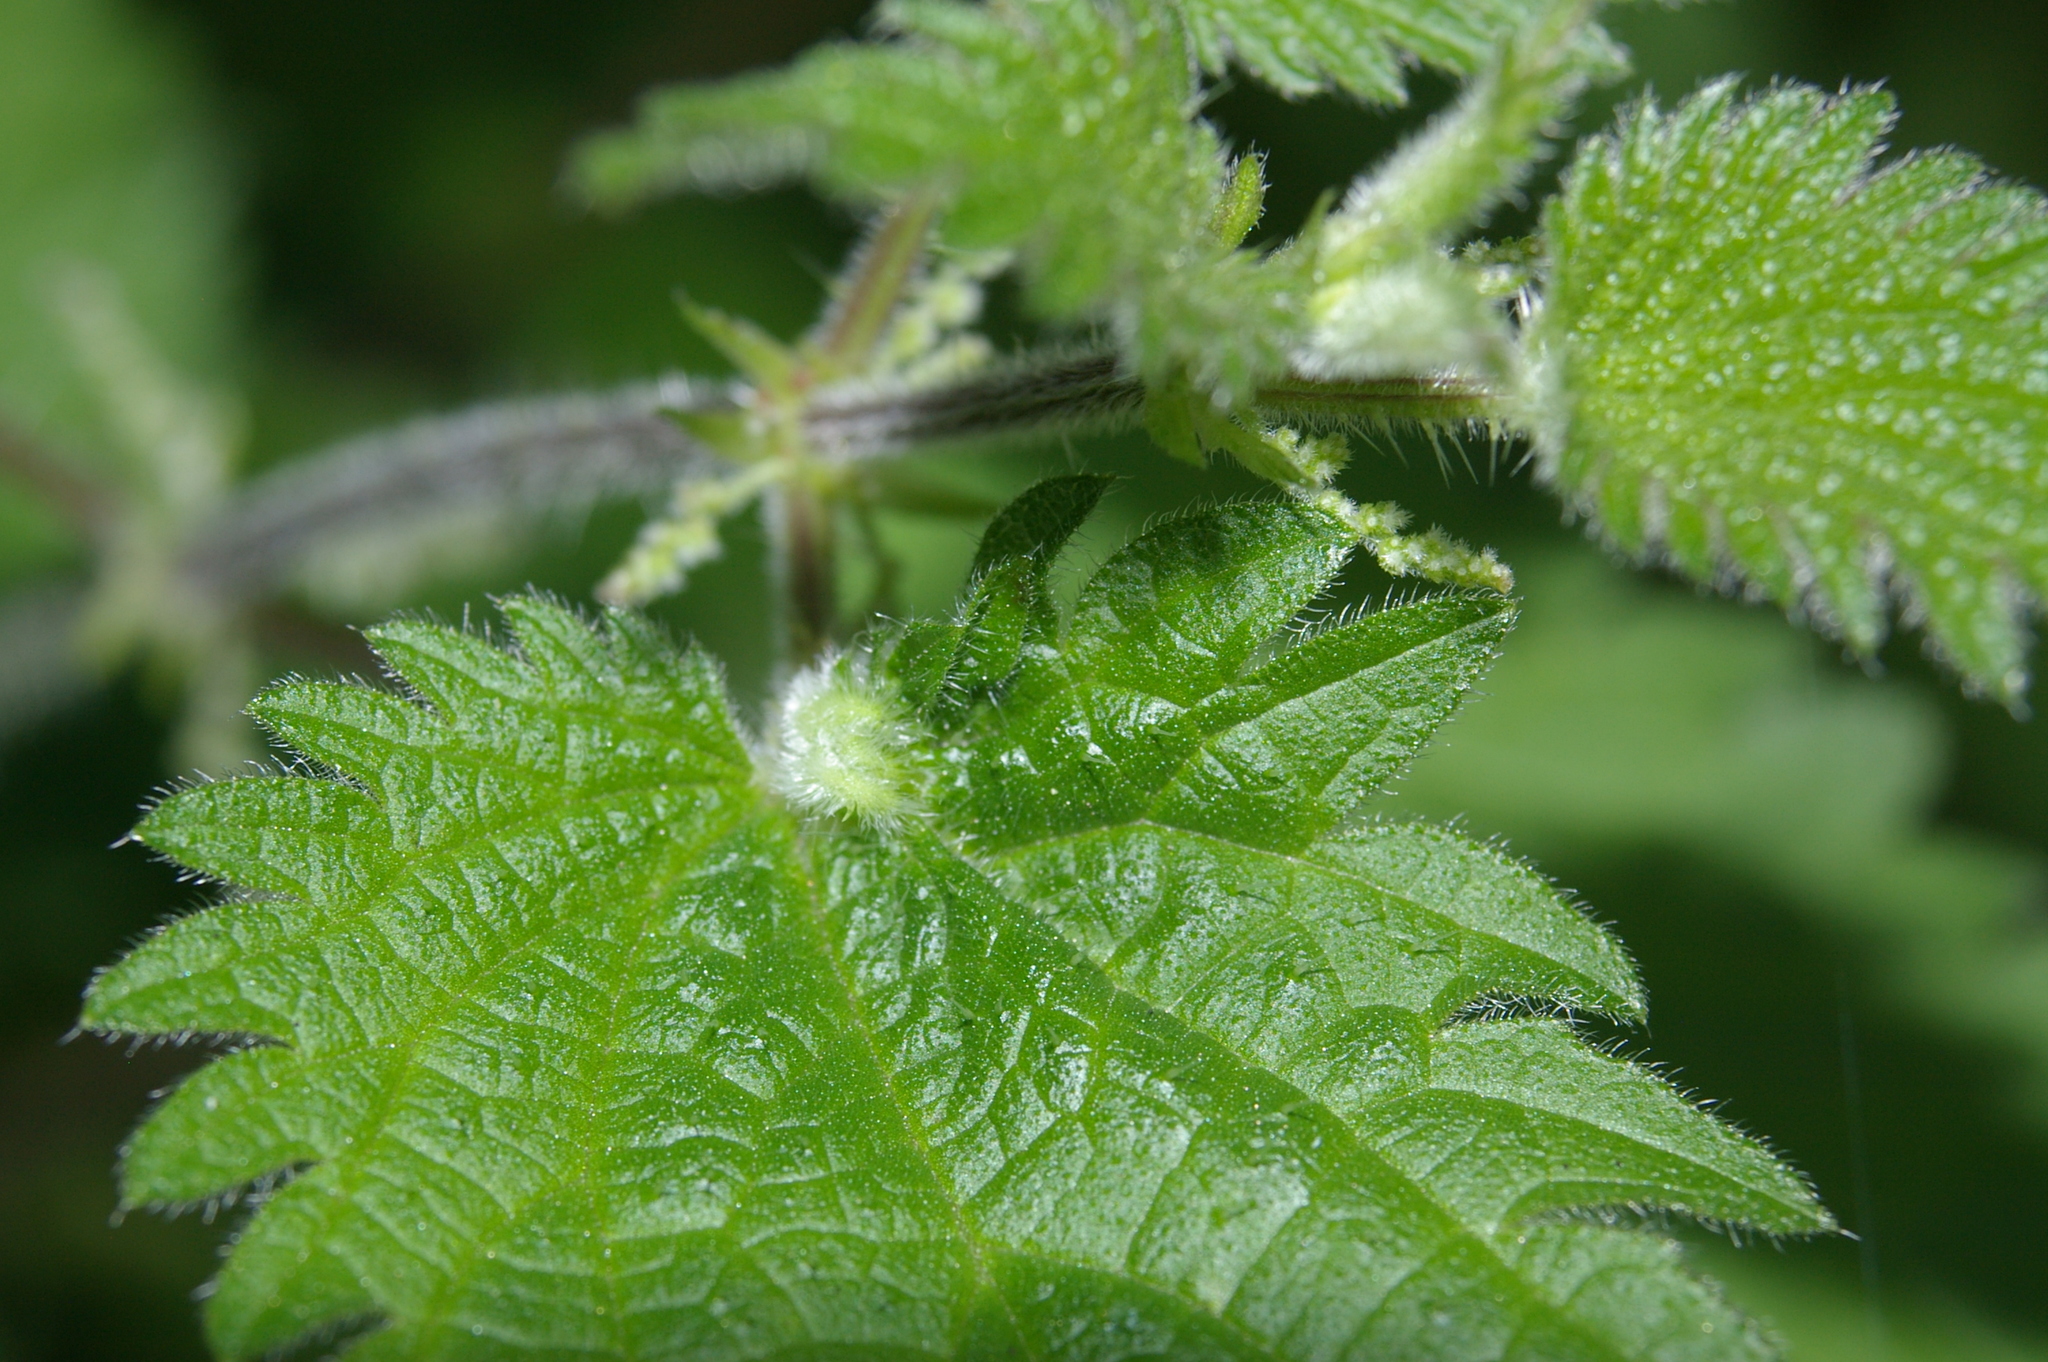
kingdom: Animalia
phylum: Arthropoda
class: Insecta
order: Diptera
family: Cecidomyiidae
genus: Dasineura
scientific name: Dasineura urticae
